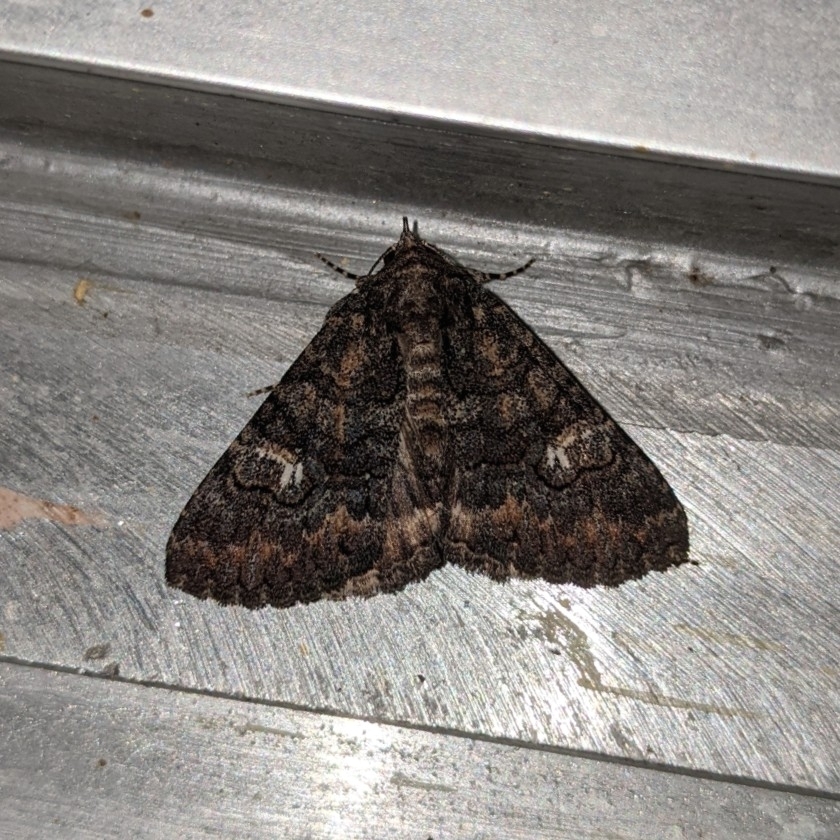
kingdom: Animalia
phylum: Arthropoda
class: Insecta
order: Lepidoptera
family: Erebidae
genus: Elousa
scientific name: Elousa mima
